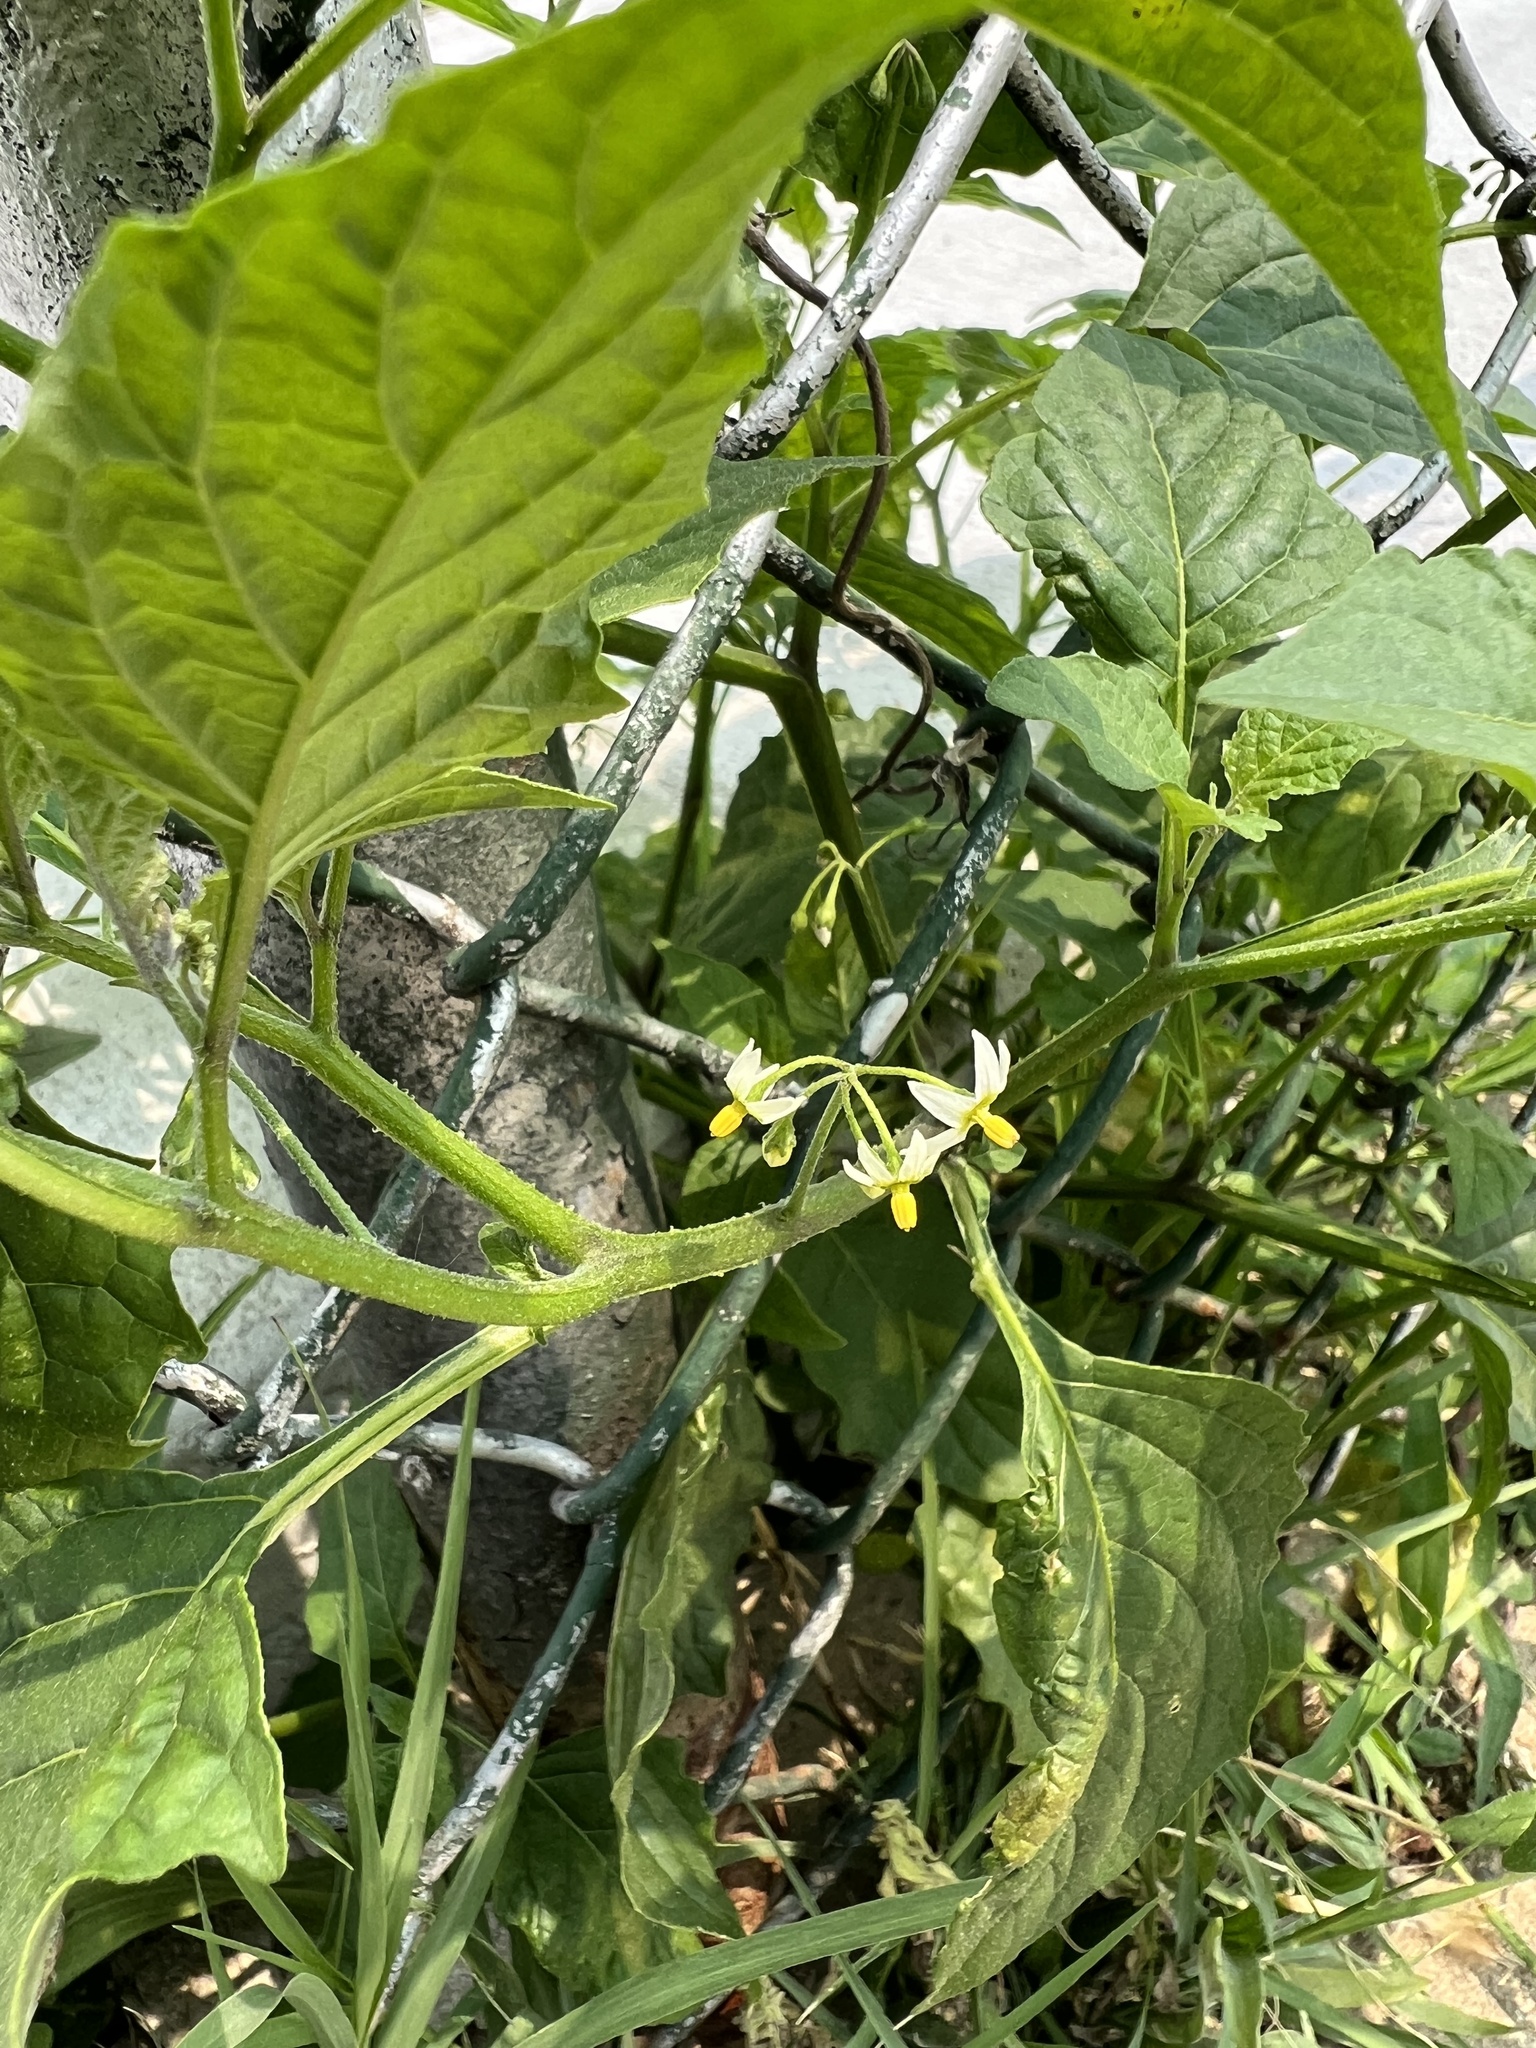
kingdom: Plantae
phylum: Tracheophyta
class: Magnoliopsida
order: Solanales
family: Solanaceae
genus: Solanum
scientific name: Solanum emulans
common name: Eastern black nightshade
